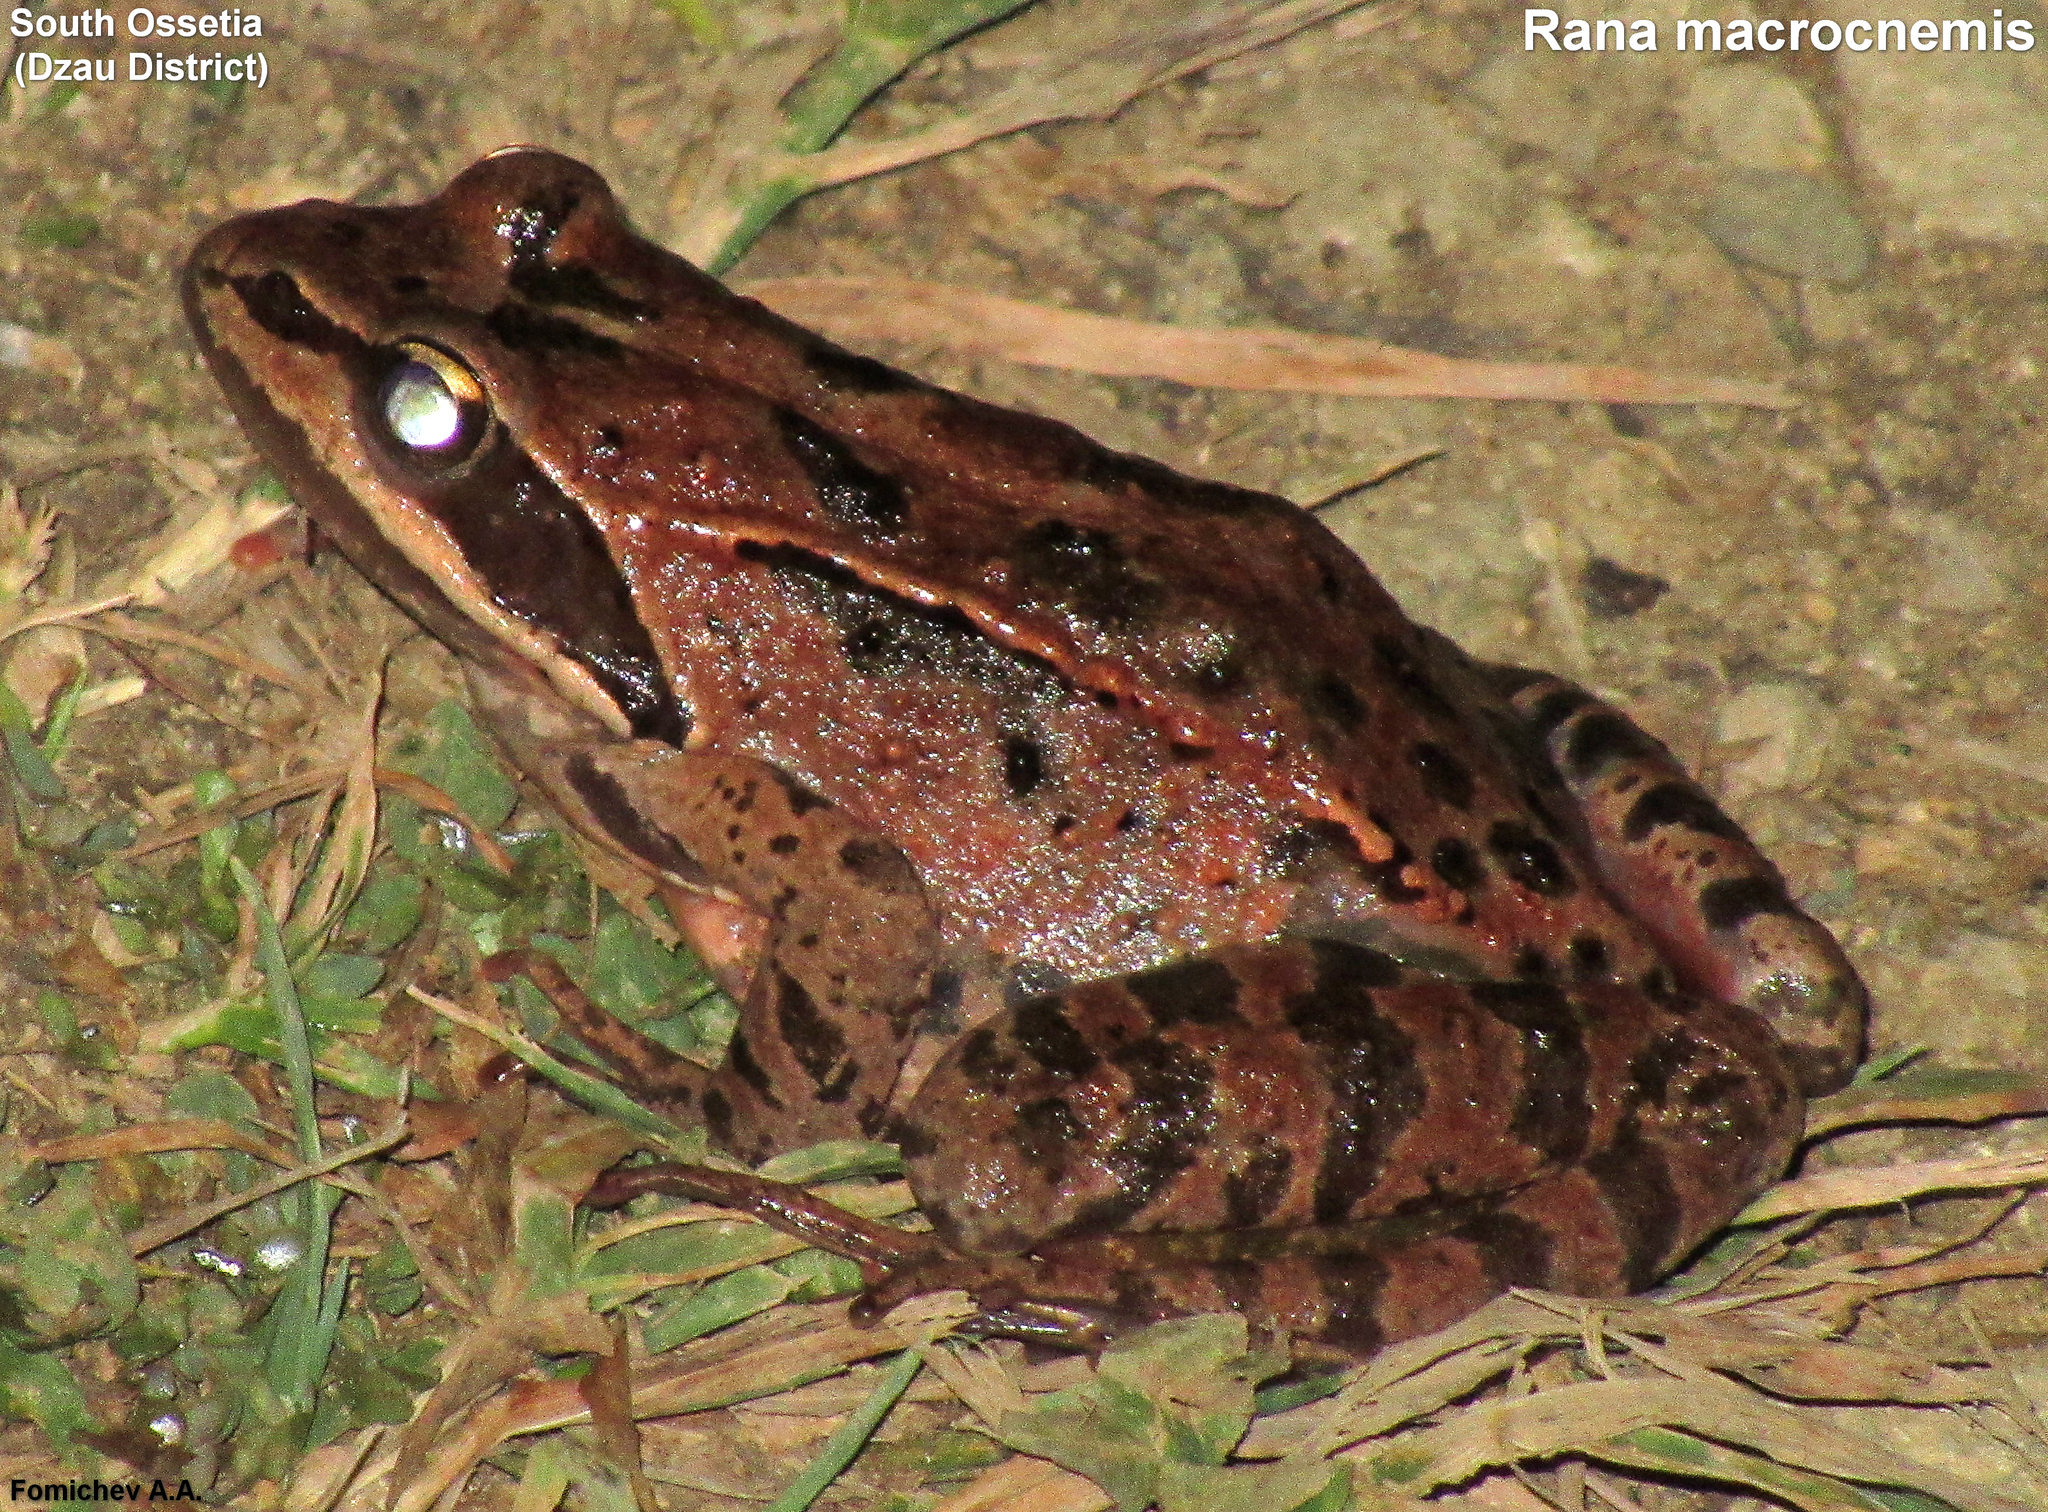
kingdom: Animalia
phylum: Chordata
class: Amphibia
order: Anura
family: Ranidae
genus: Rana
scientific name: Rana macrocnemis
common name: Banded frog
